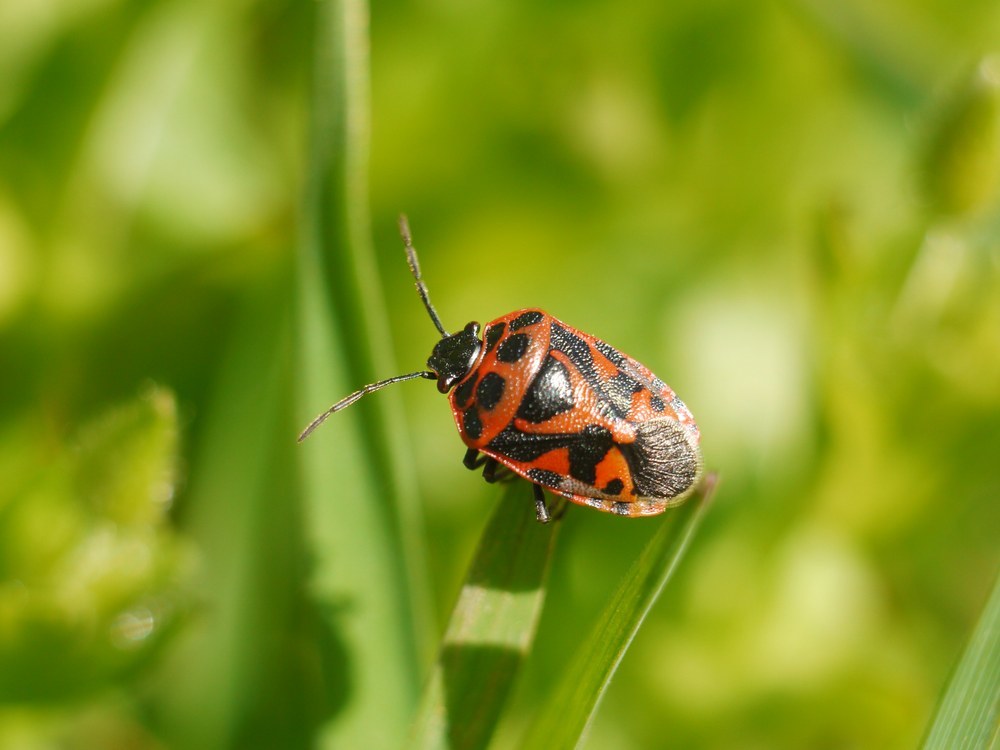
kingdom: Animalia
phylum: Arthropoda
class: Insecta
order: Hemiptera
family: Pentatomidae
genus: Eurydema
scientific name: Eurydema ornata
